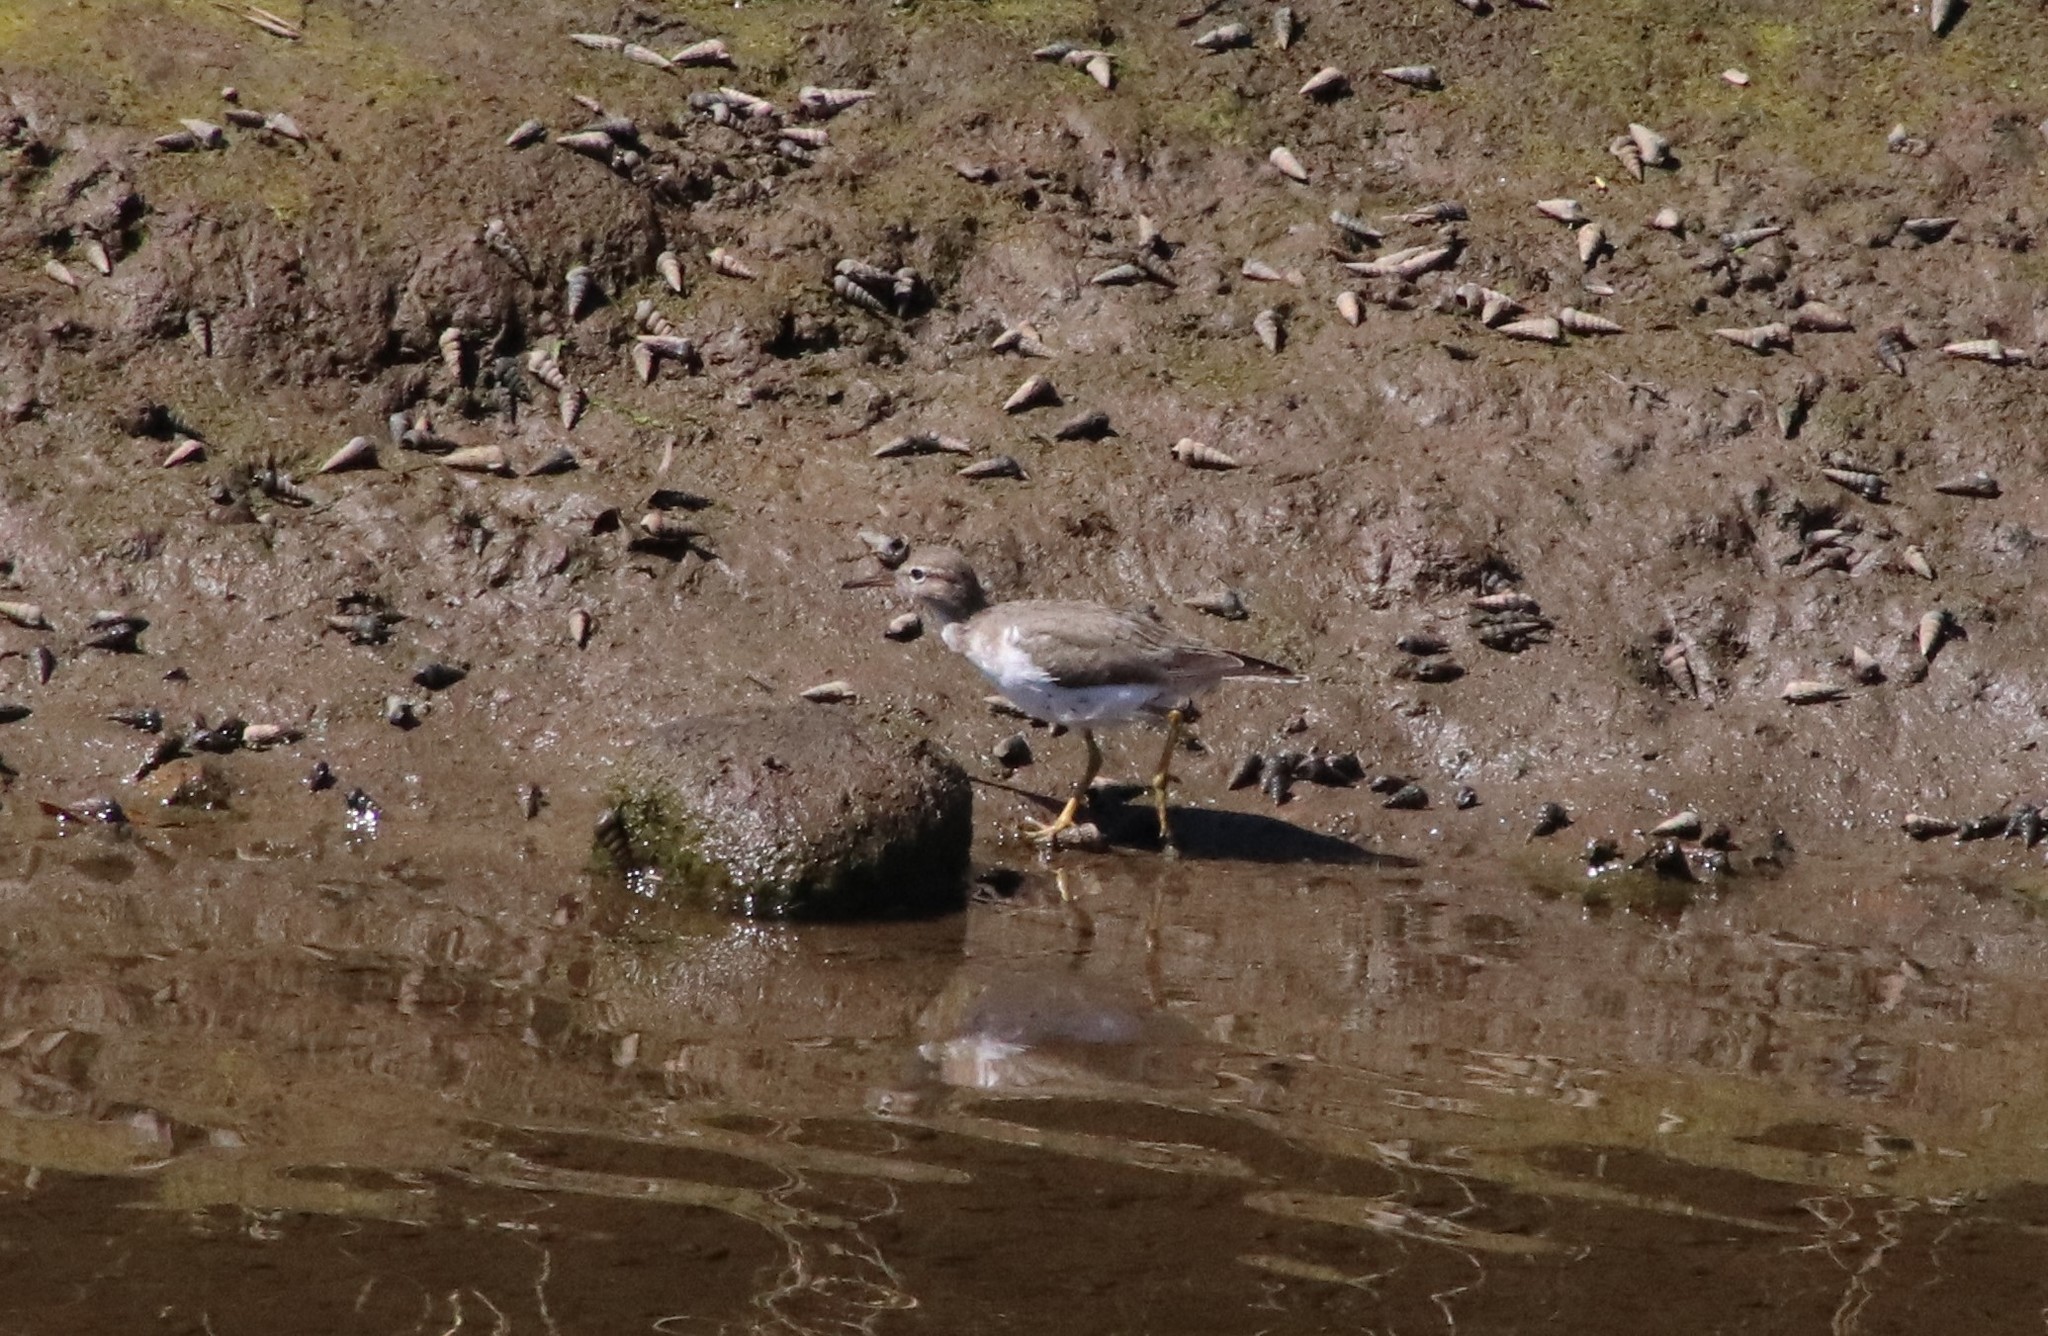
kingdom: Animalia
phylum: Chordata
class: Aves
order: Charadriiformes
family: Scolopacidae
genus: Actitis
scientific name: Actitis macularius
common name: Spotted sandpiper
